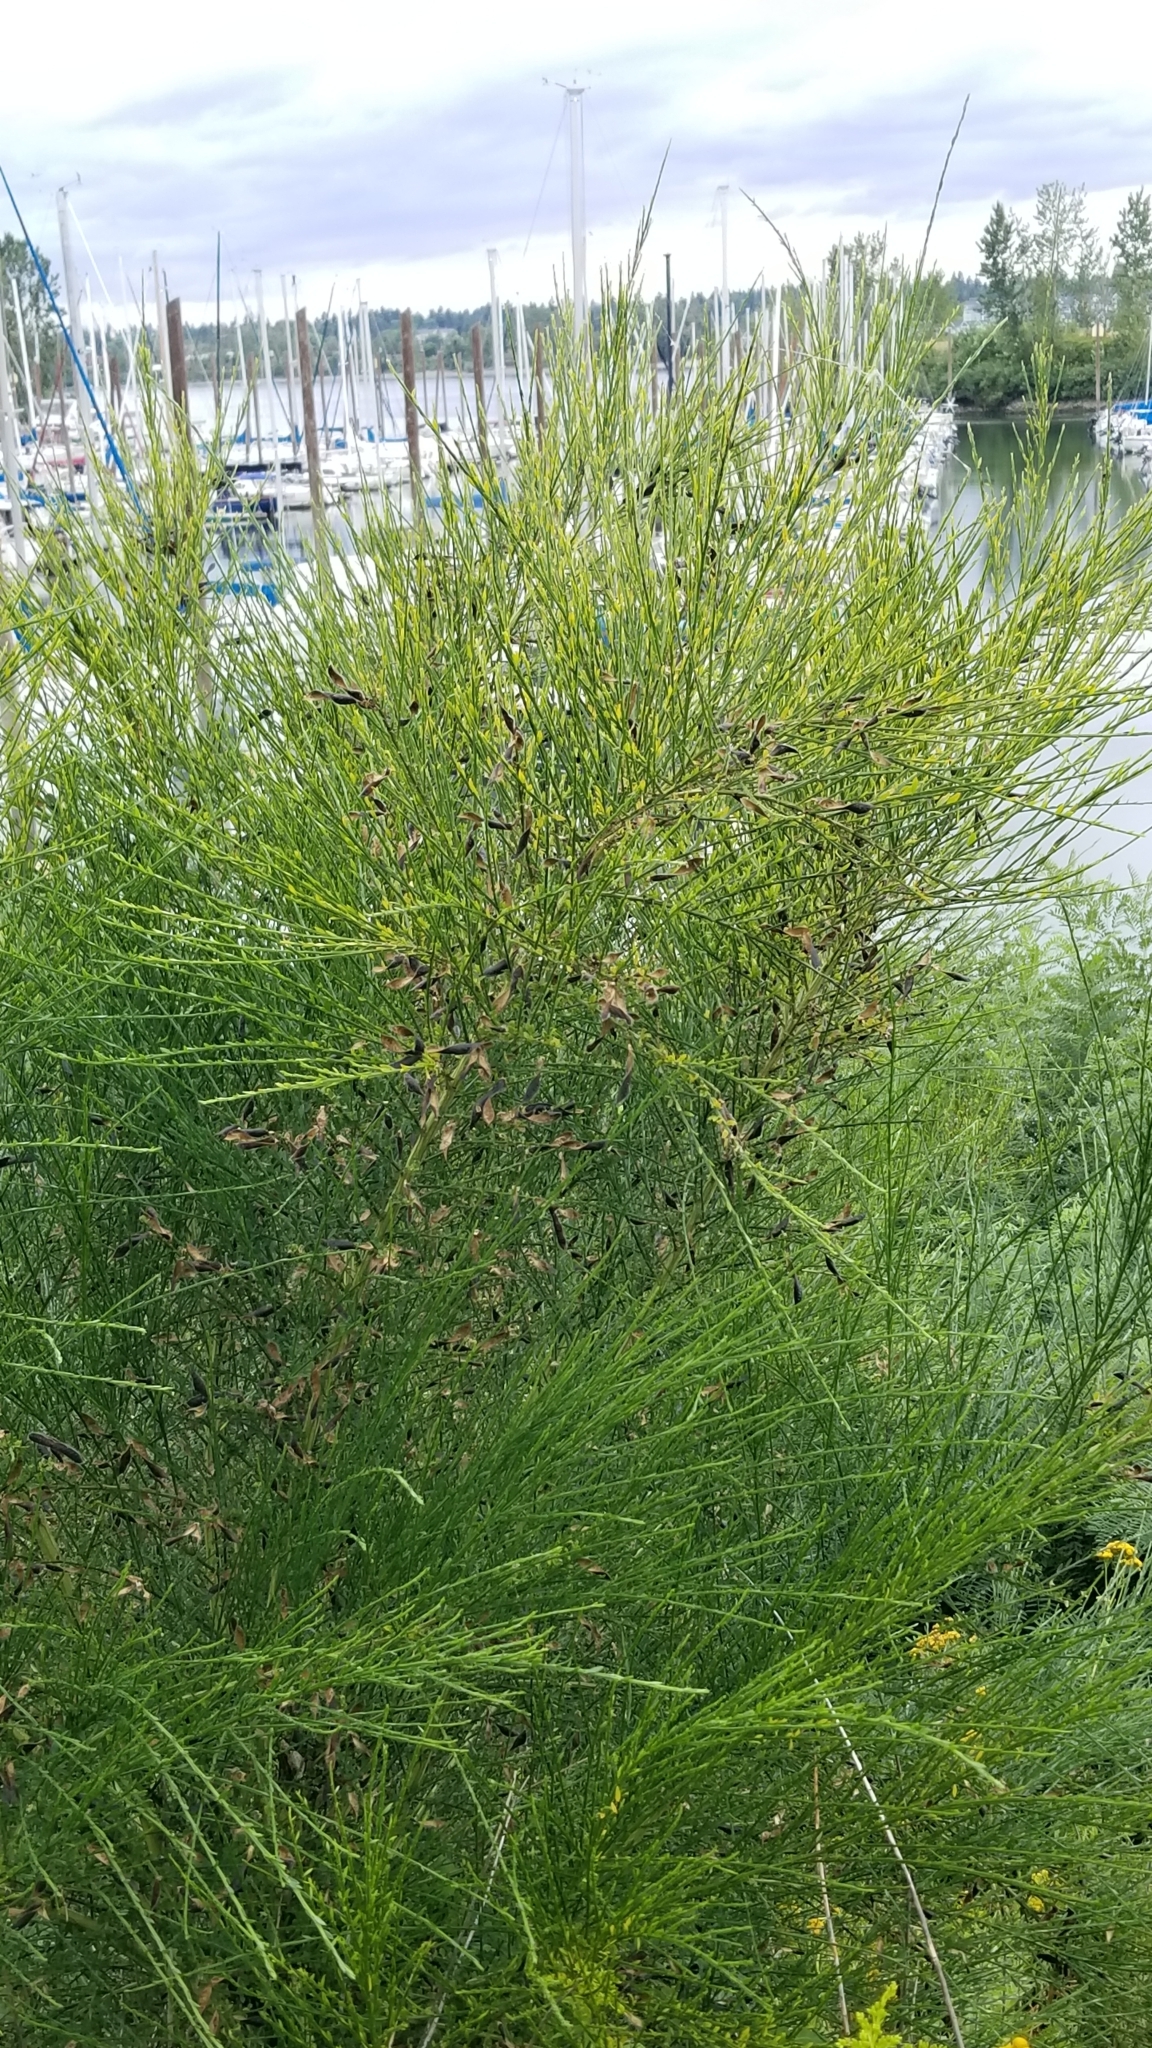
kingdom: Plantae
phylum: Tracheophyta
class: Magnoliopsida
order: Fabales
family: Fabaceae
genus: Cytisus
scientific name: Cytisus scoparius
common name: Scotch broom
